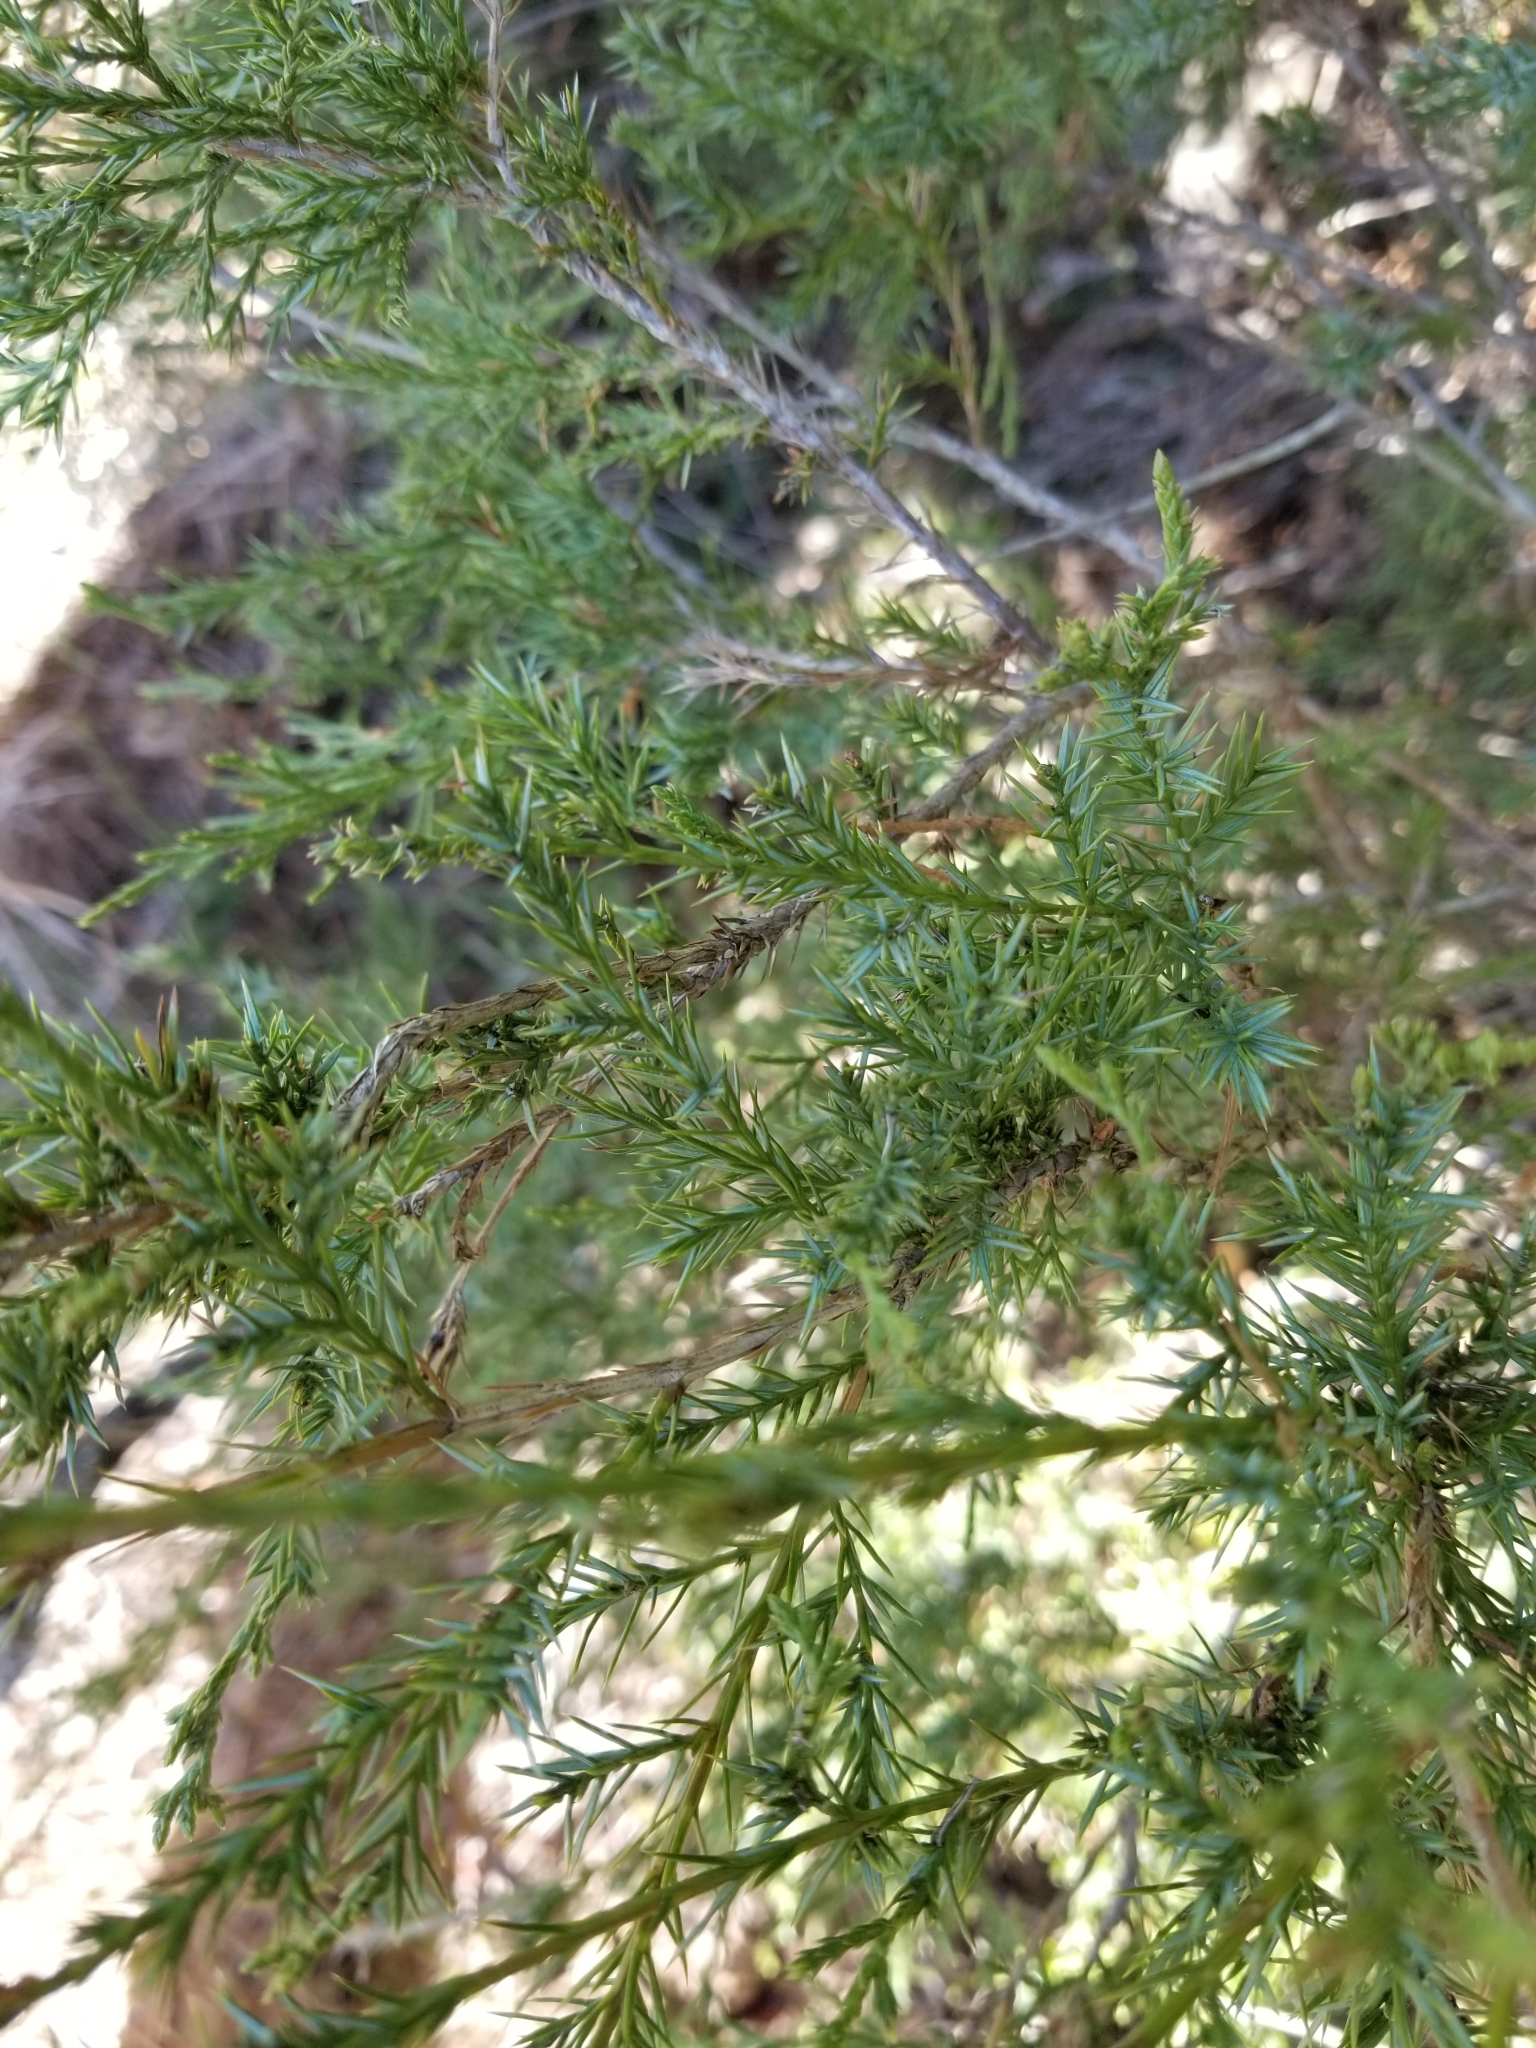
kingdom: Plantae
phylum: Tracheophyta
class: Pinopsida
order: Pinales
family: Cupressaceae
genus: Juniperus
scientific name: Juniperus virginiana
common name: Red juniper
